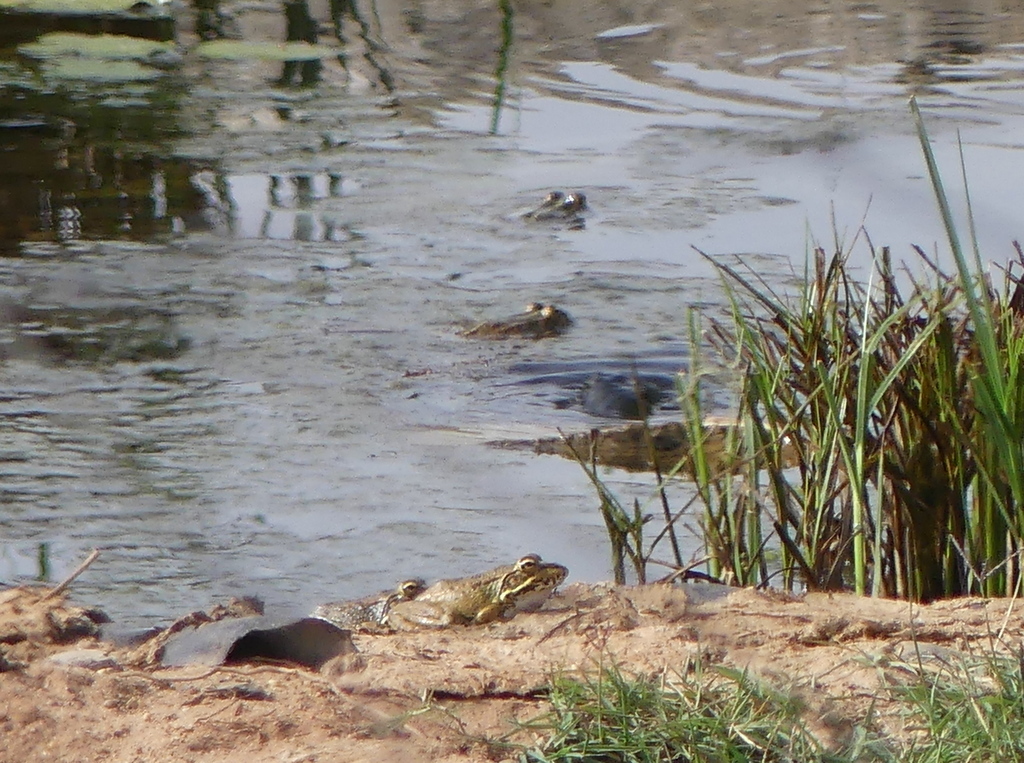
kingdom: Animalia
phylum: Chordata
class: Amphibia
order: Anura
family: Ranidae
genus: Pelophylax
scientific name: Pelophylax perezi
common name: Perez's frog
